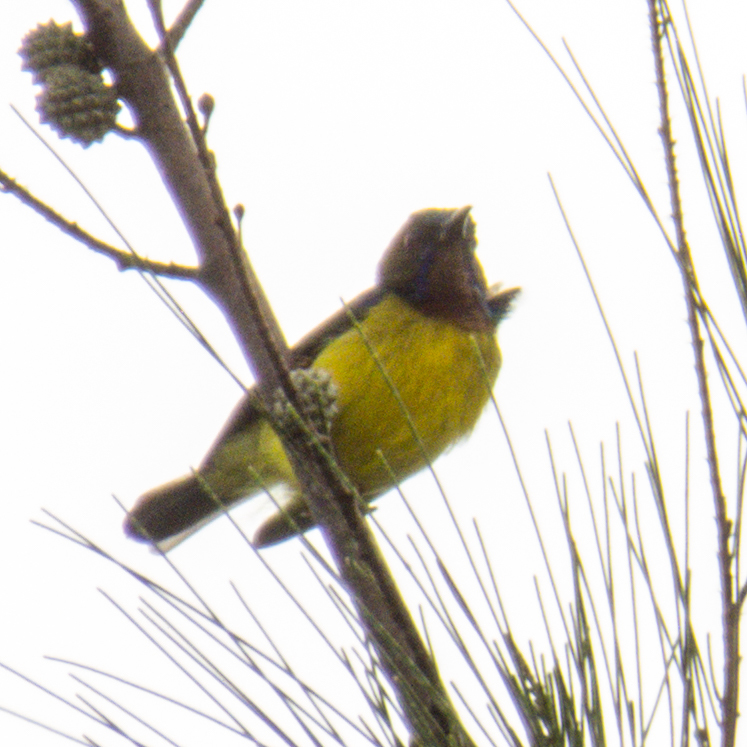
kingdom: Animalia
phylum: Chordata
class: Aves
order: Passeriformes
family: Nectariniidae
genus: Anthreptes
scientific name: Anthreptes malacensis
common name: Brown-throated sunbird
